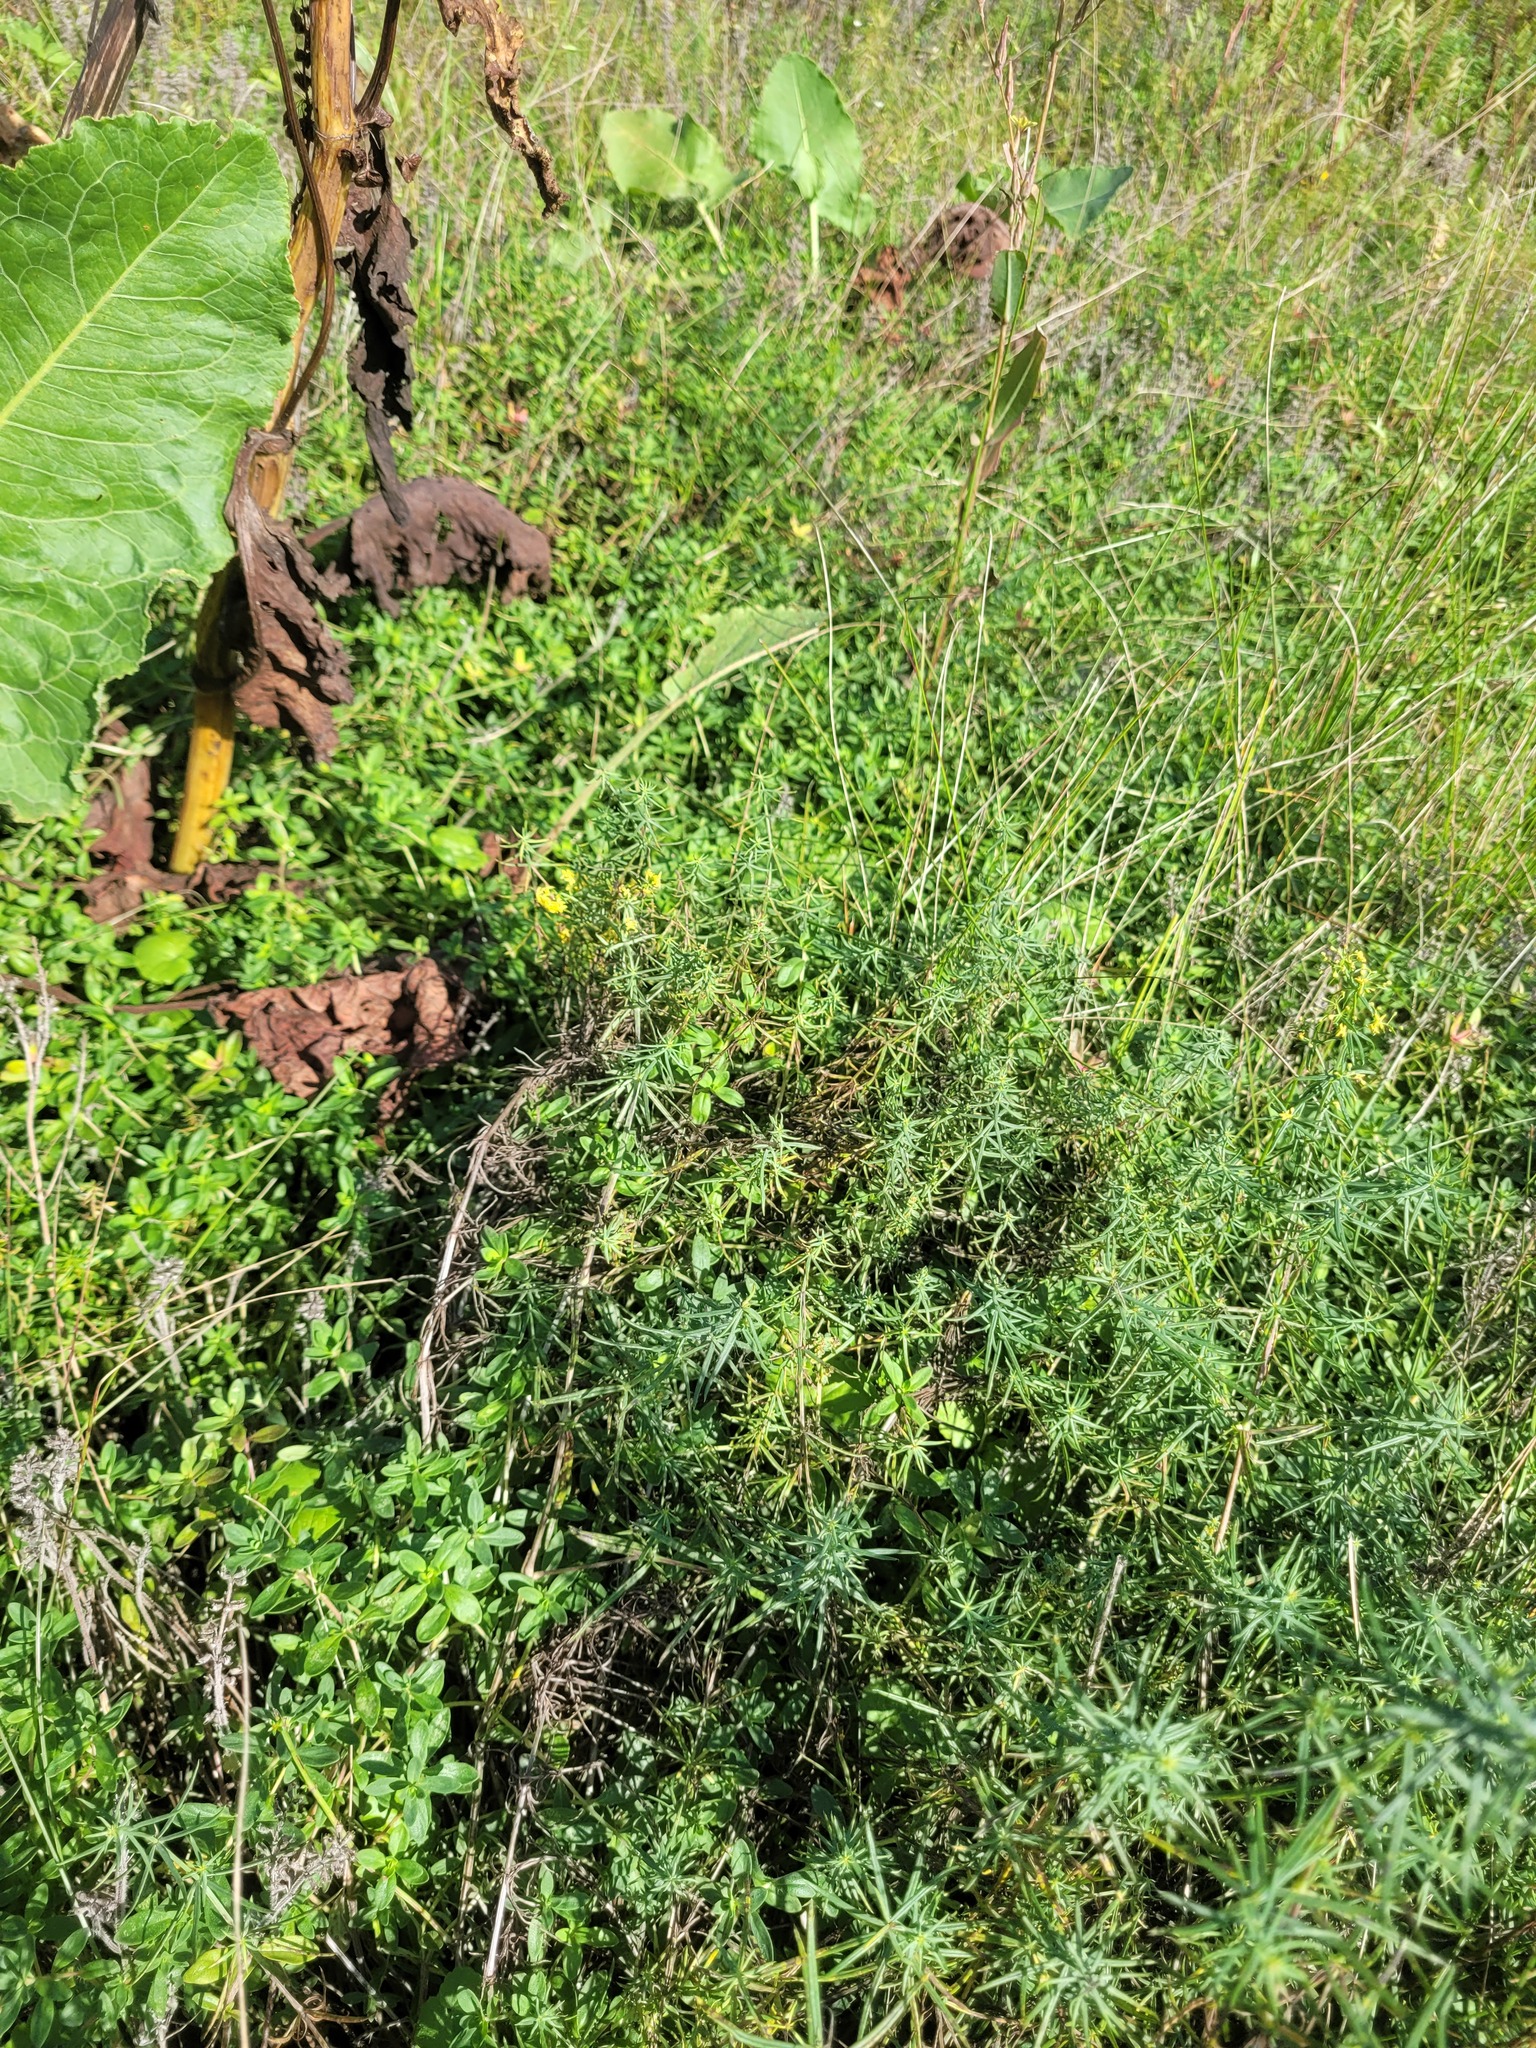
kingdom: Plantae
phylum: Tracheophyta
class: Magnoliopsida
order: Gentianales
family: Rubiaceae
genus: Galium
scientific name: Galium verum
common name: Lady's bedstraw
